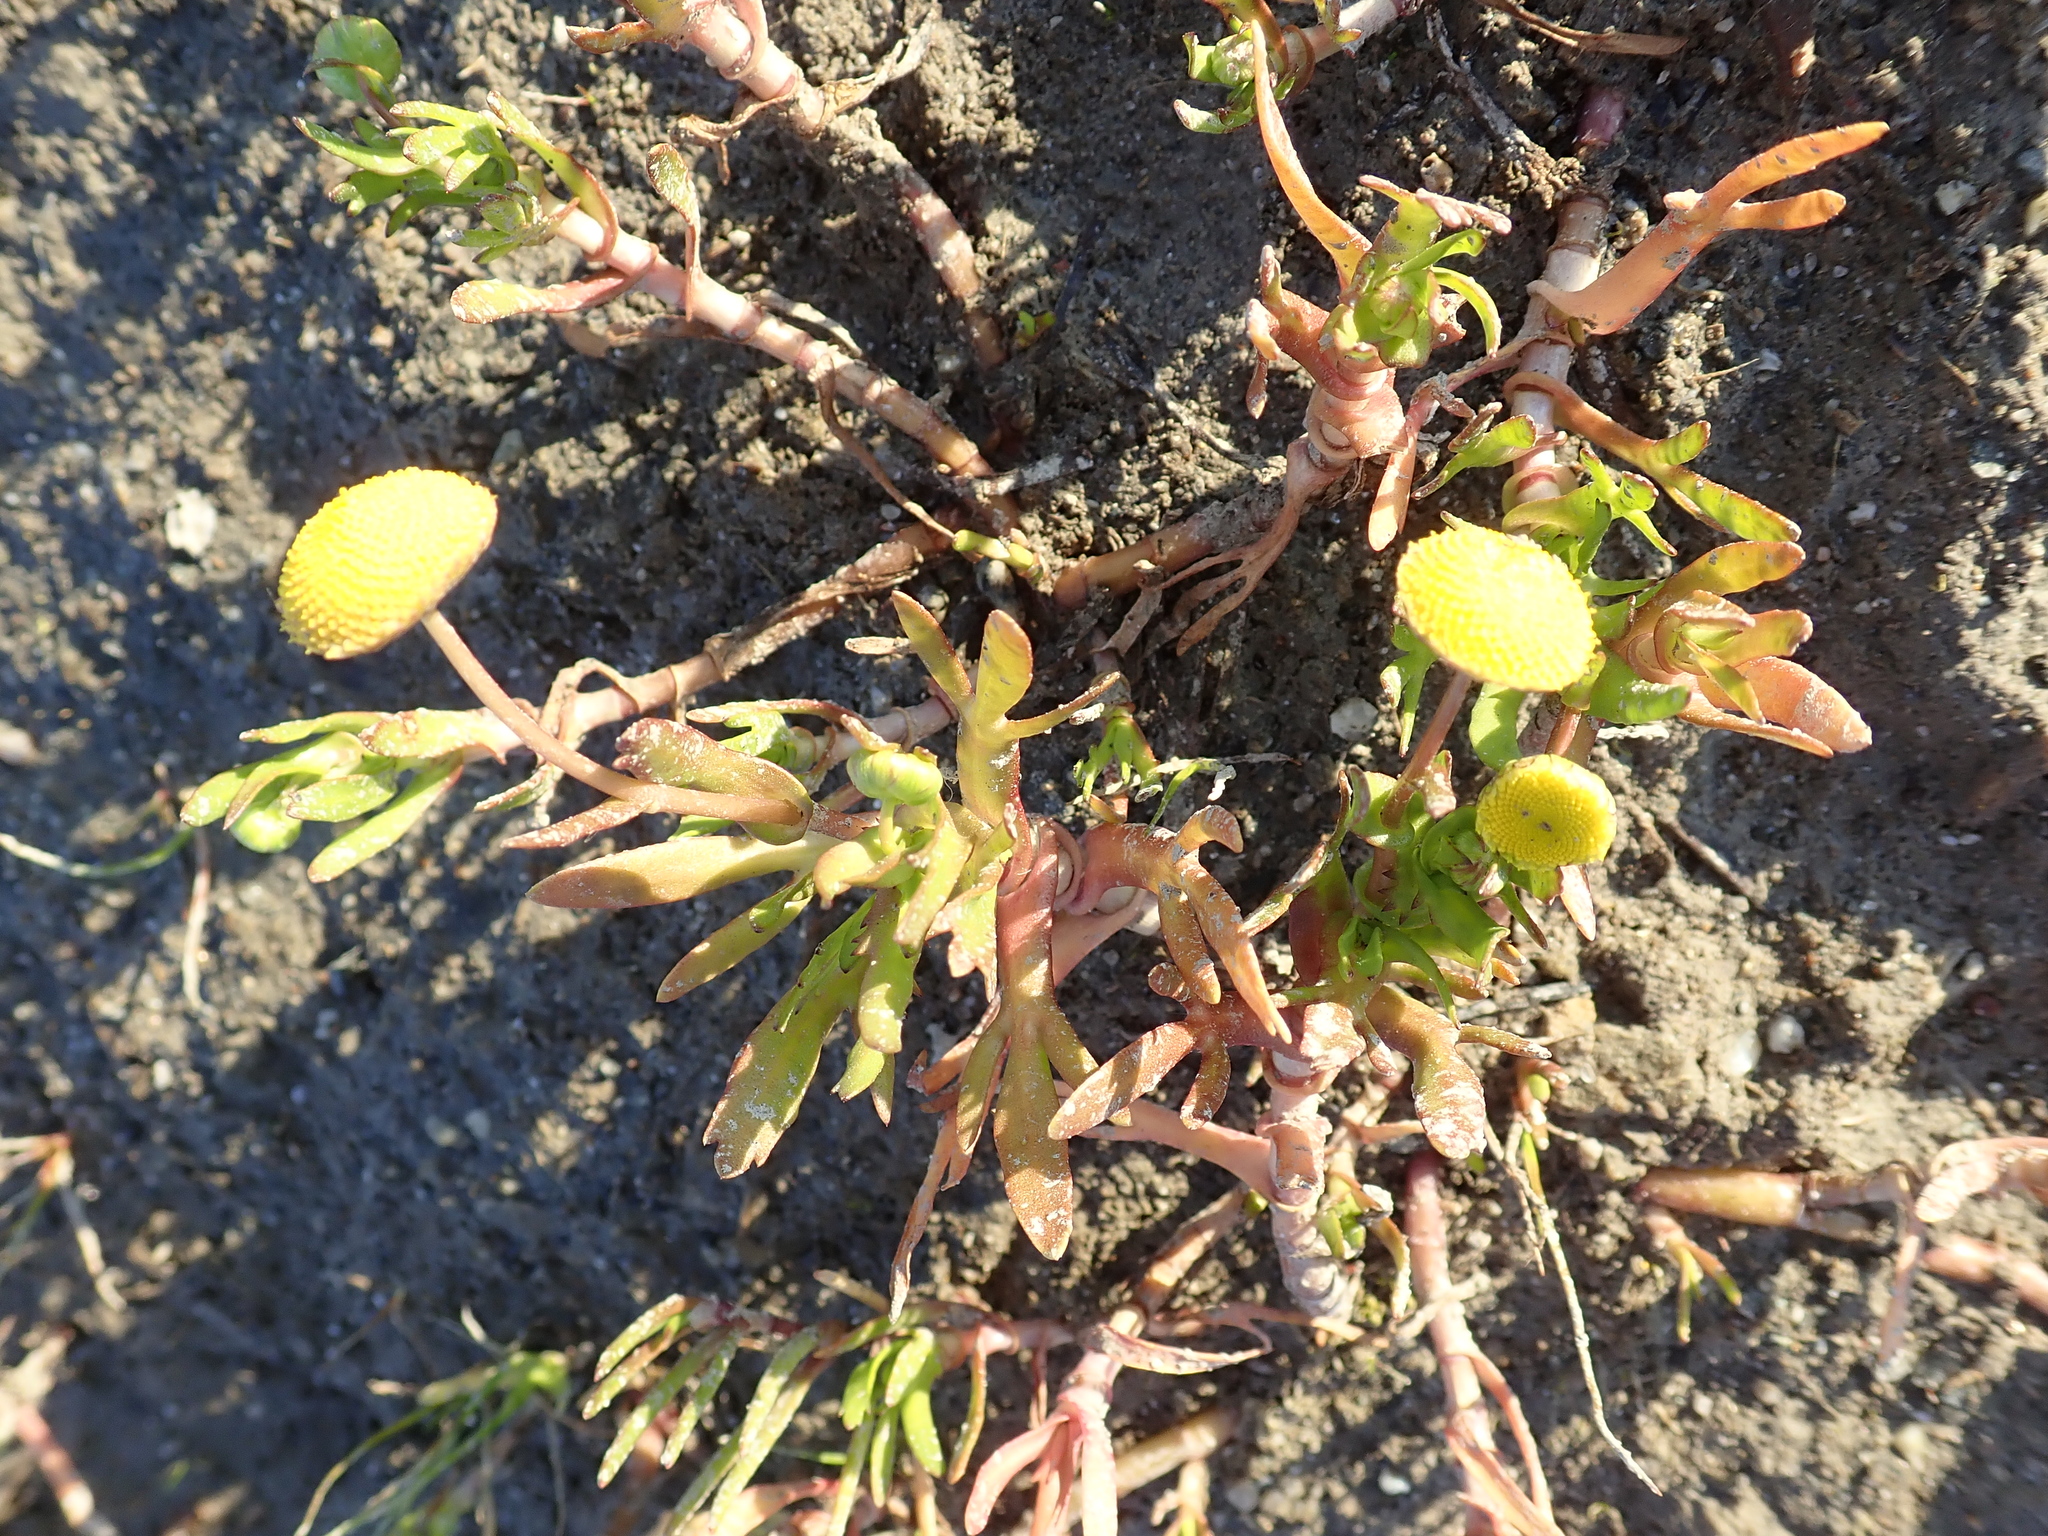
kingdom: Plantae
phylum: Tracheophyta
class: Magnoliopsida
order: Asterales
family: Asteraceae
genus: Cotula
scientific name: Cotula coronopifolia
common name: Buttonweed
